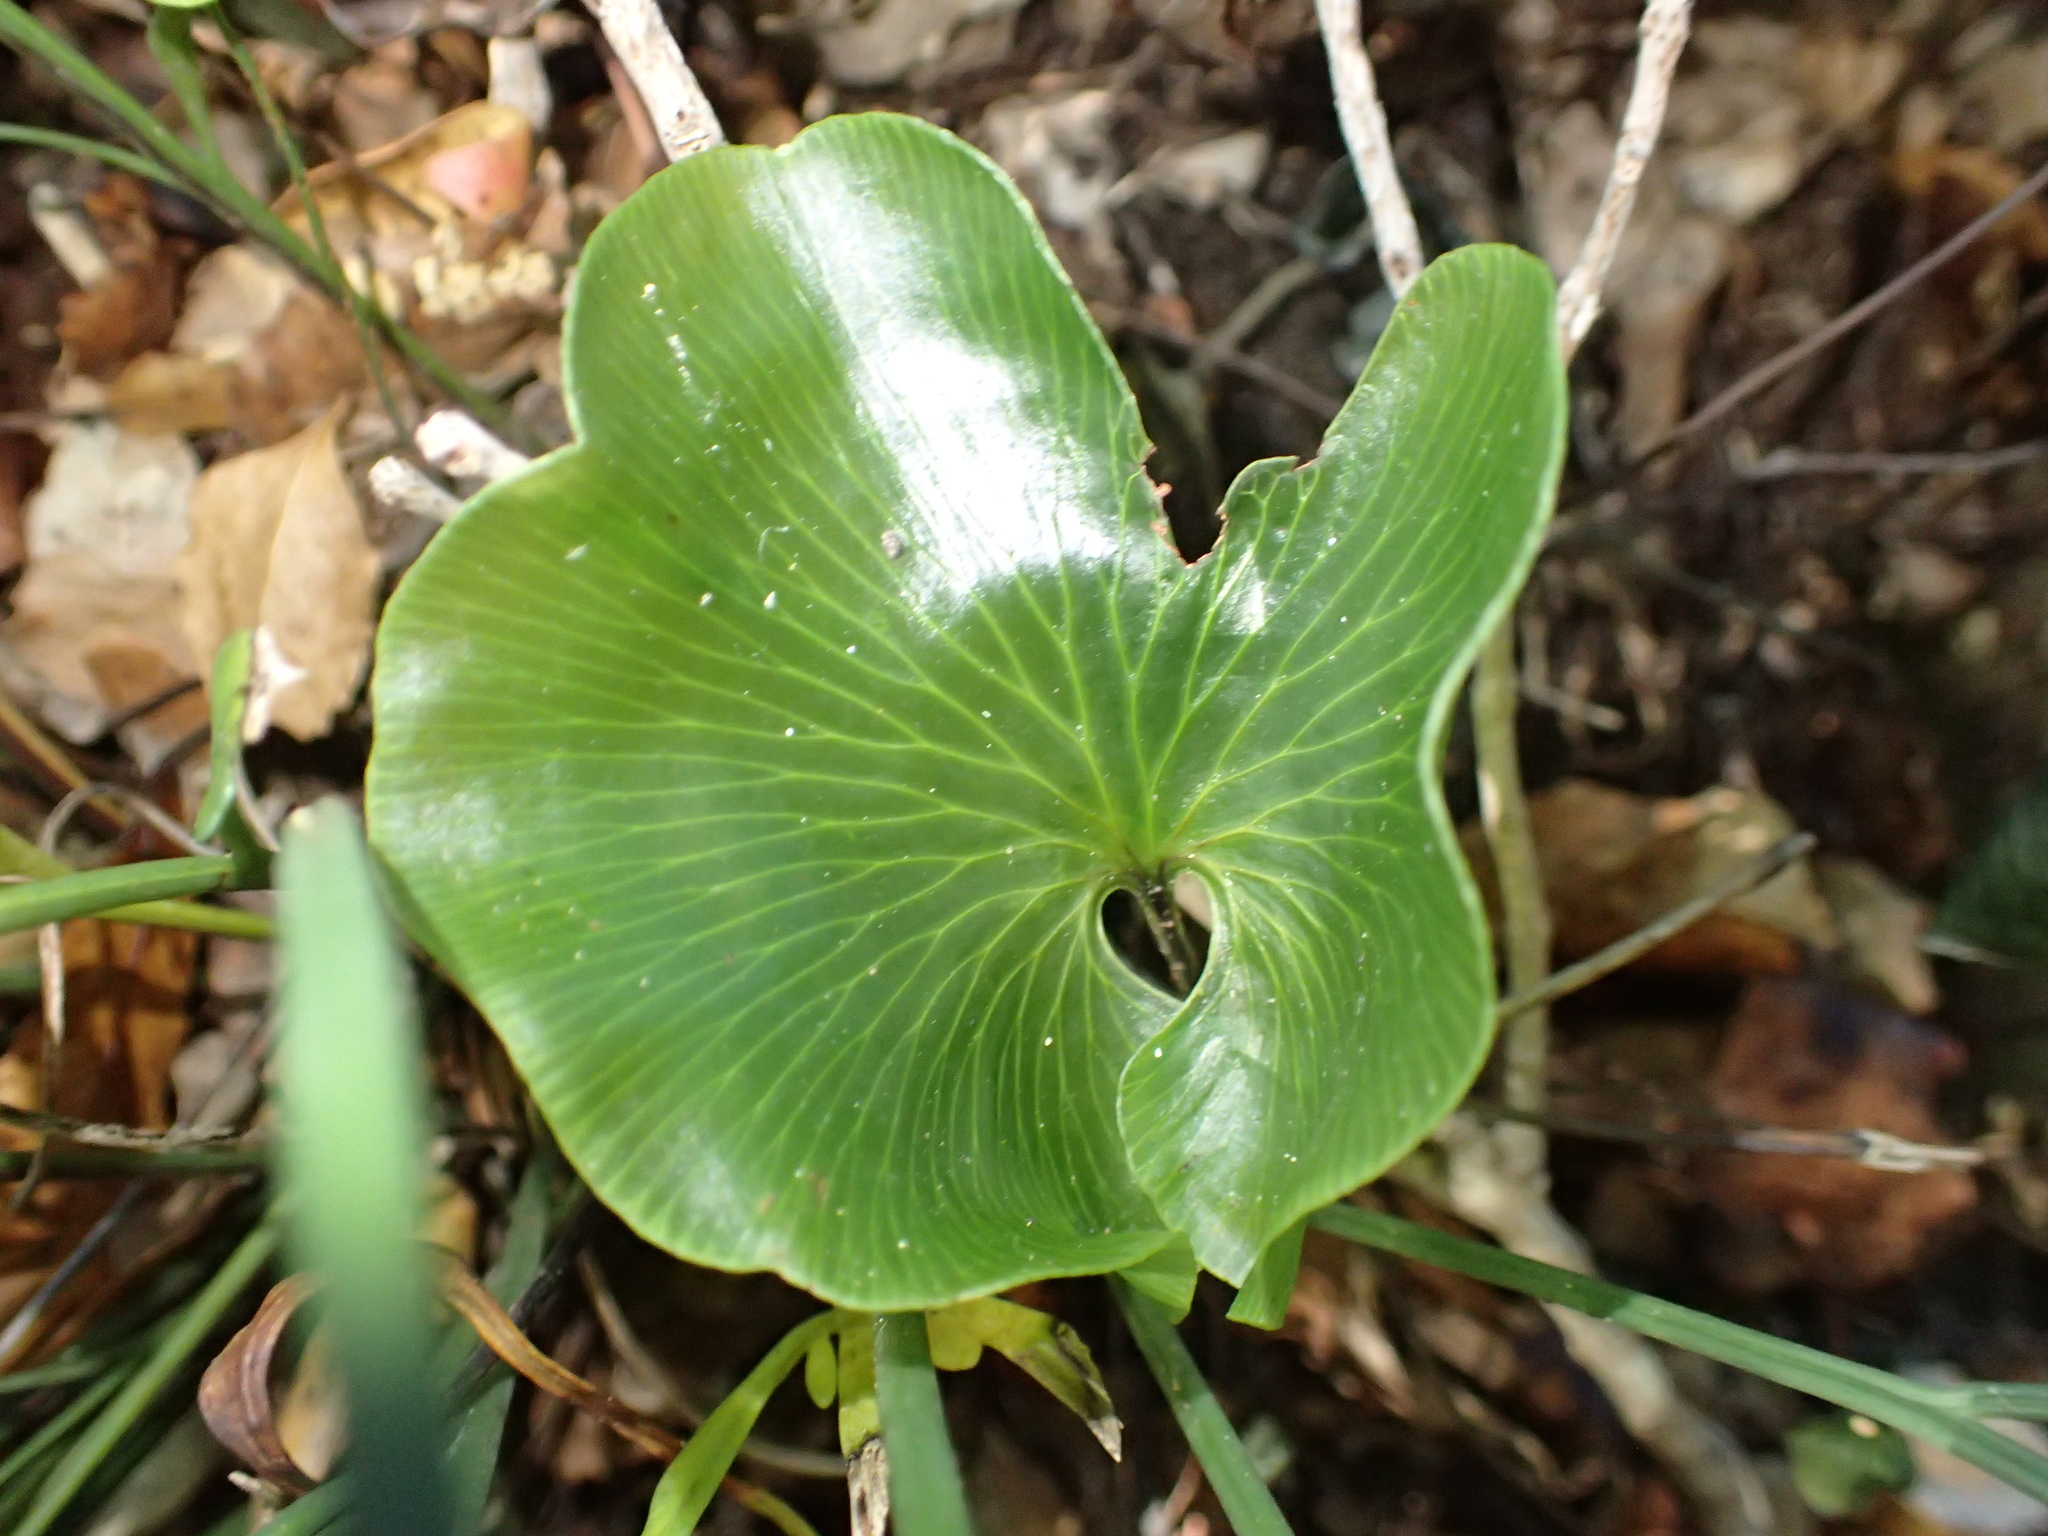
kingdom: Plantae
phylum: Tracheophyta
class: Polypodiopsida
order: Hymenophyllales
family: Hymenophyllaceae
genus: Hymenophyllum
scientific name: Hymenophyllum nephrophyllum
